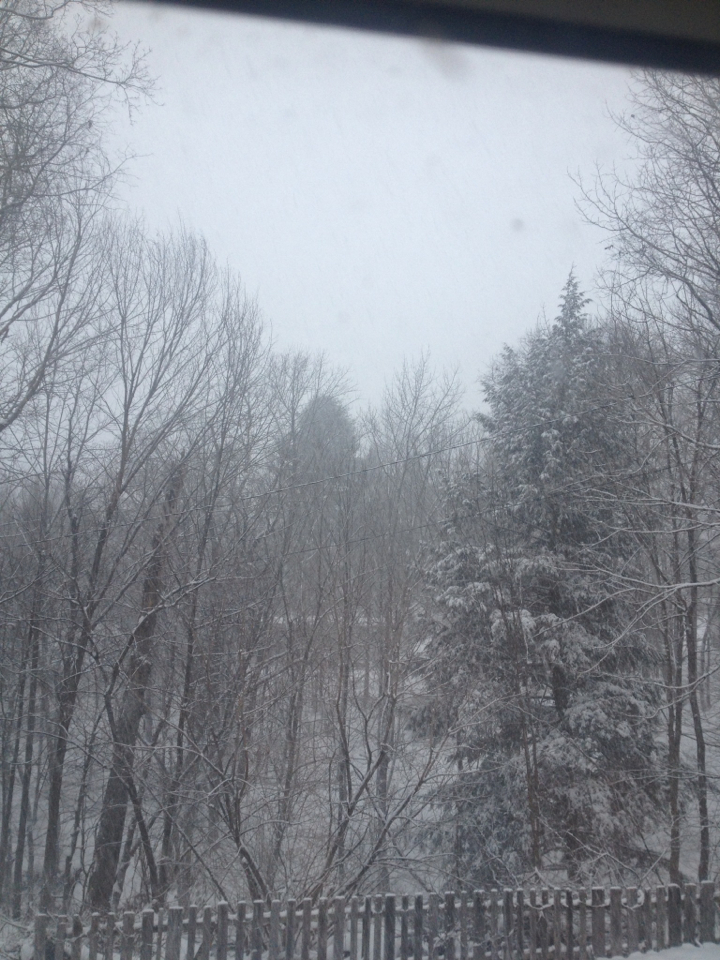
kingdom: Plantae
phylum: Tracheophyta
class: Pinopsida
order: Pinales
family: Pinaceae
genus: Tsuga
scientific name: Tsuga canadensis
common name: Eastern hemlock
